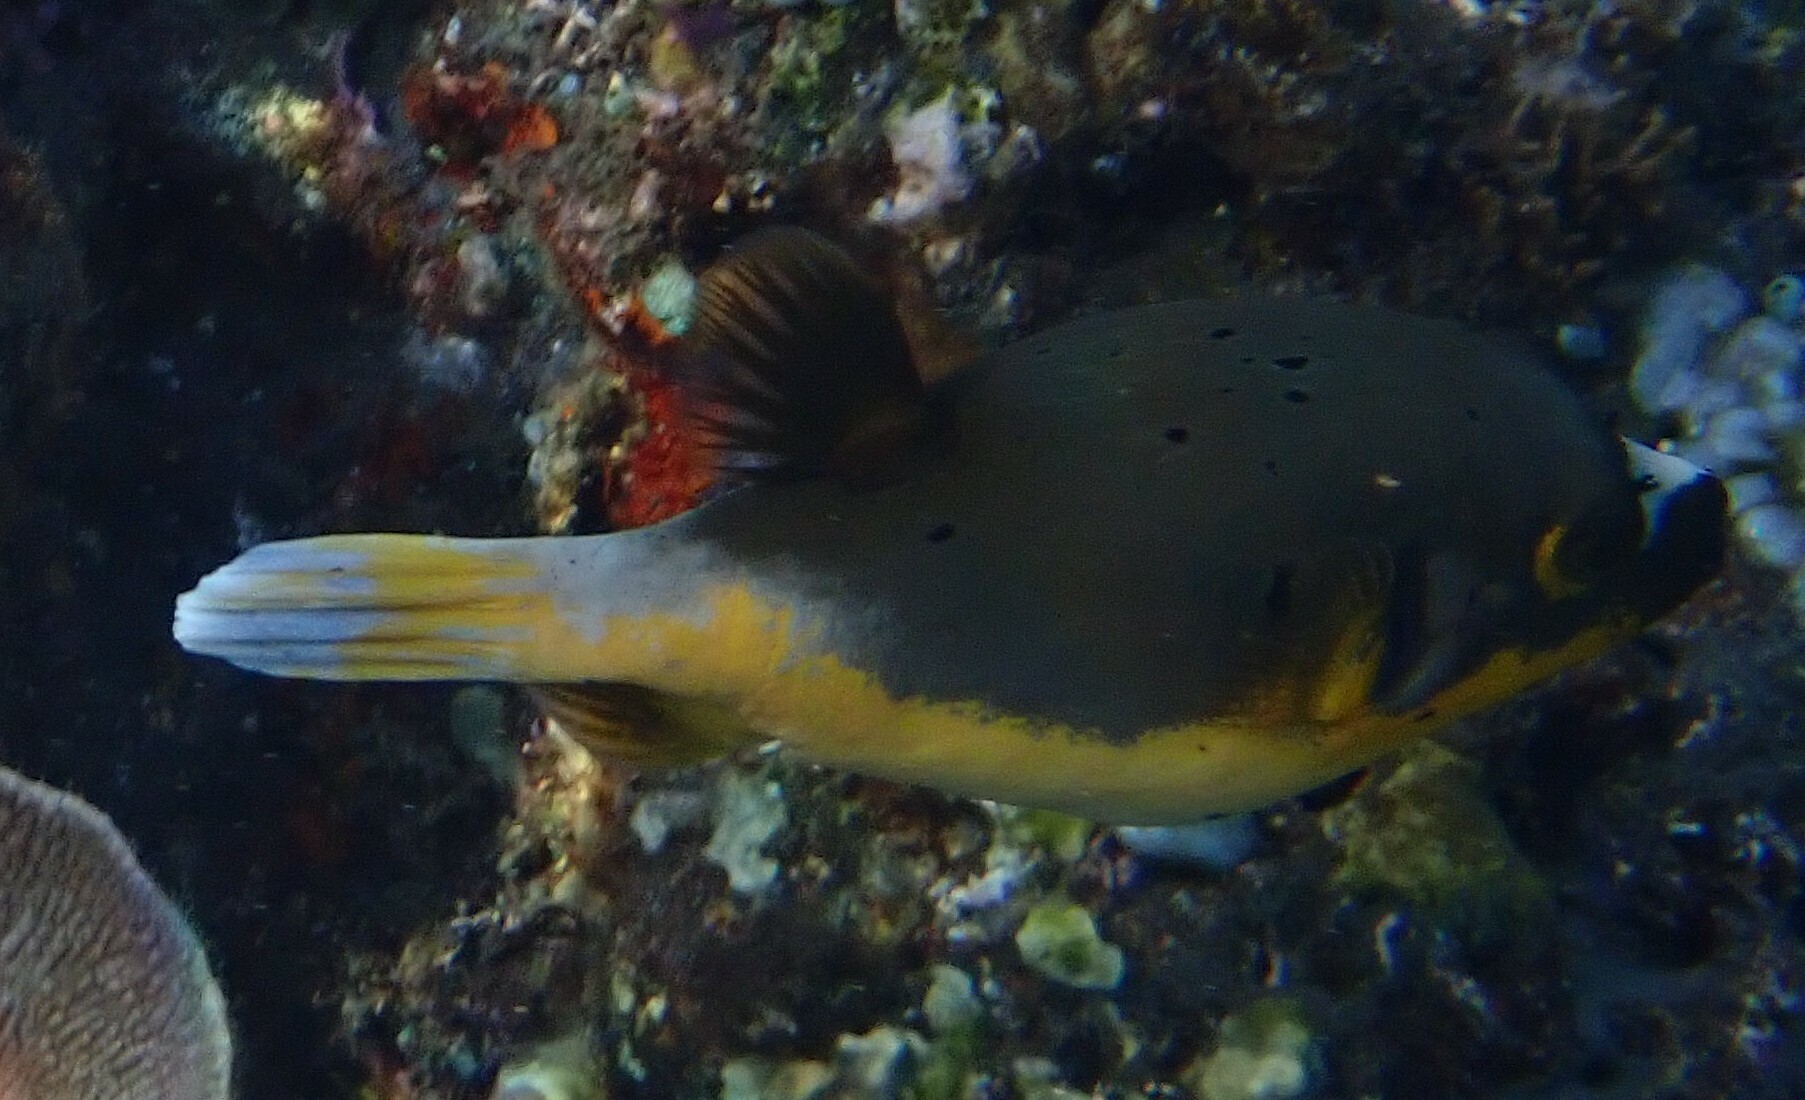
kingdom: Animalia
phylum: Chordata
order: Tetraodontiformes
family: Tetraodontidae
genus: Arothron
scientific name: Arothron nigropunctatus
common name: Black spotted blow fish
